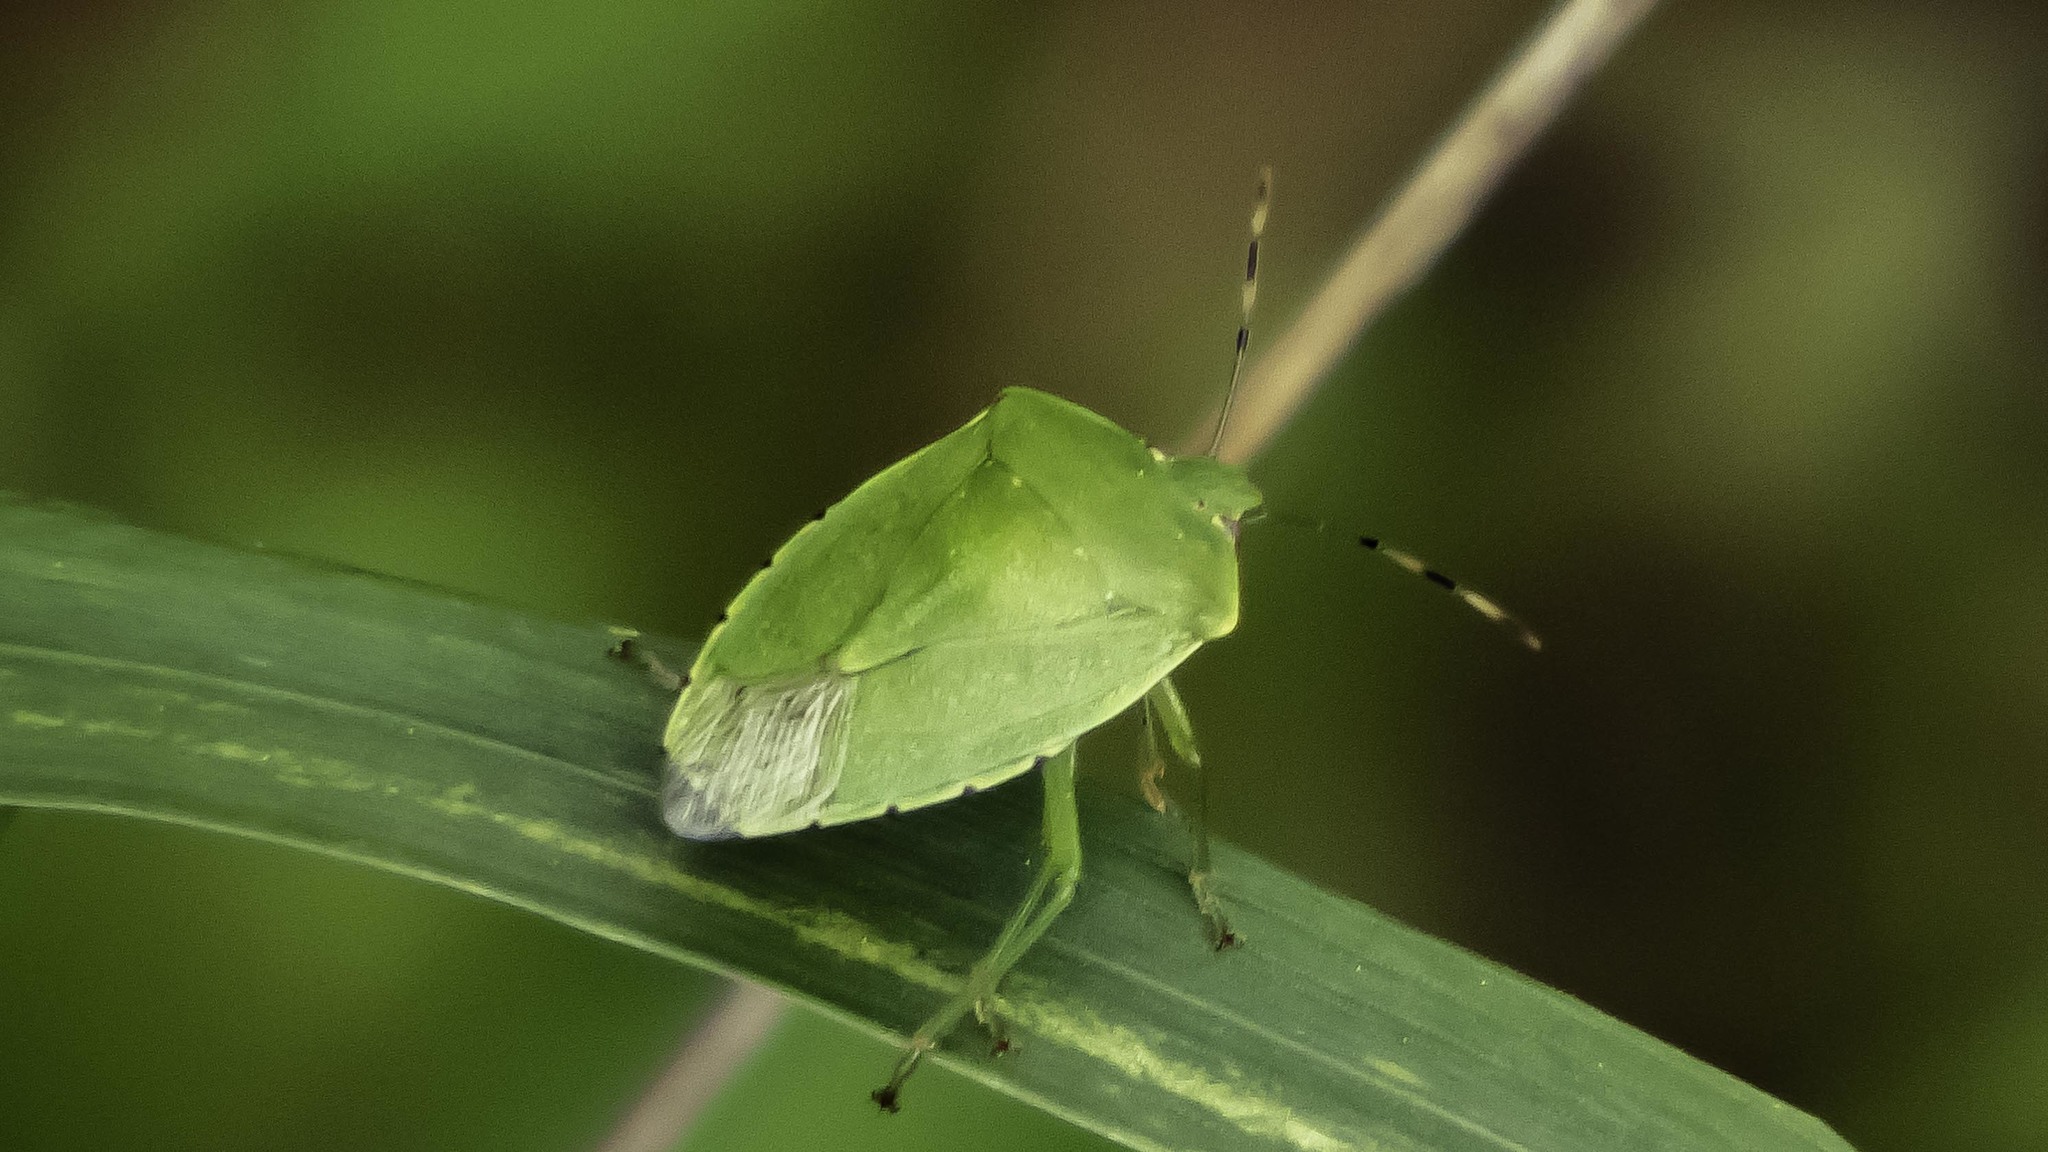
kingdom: Animalia
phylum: Arthropoda
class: Insecta
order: Hemiptera
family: Pentatomidae
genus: Chinavia
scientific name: Chinavia hilaris
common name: Green stink bug
